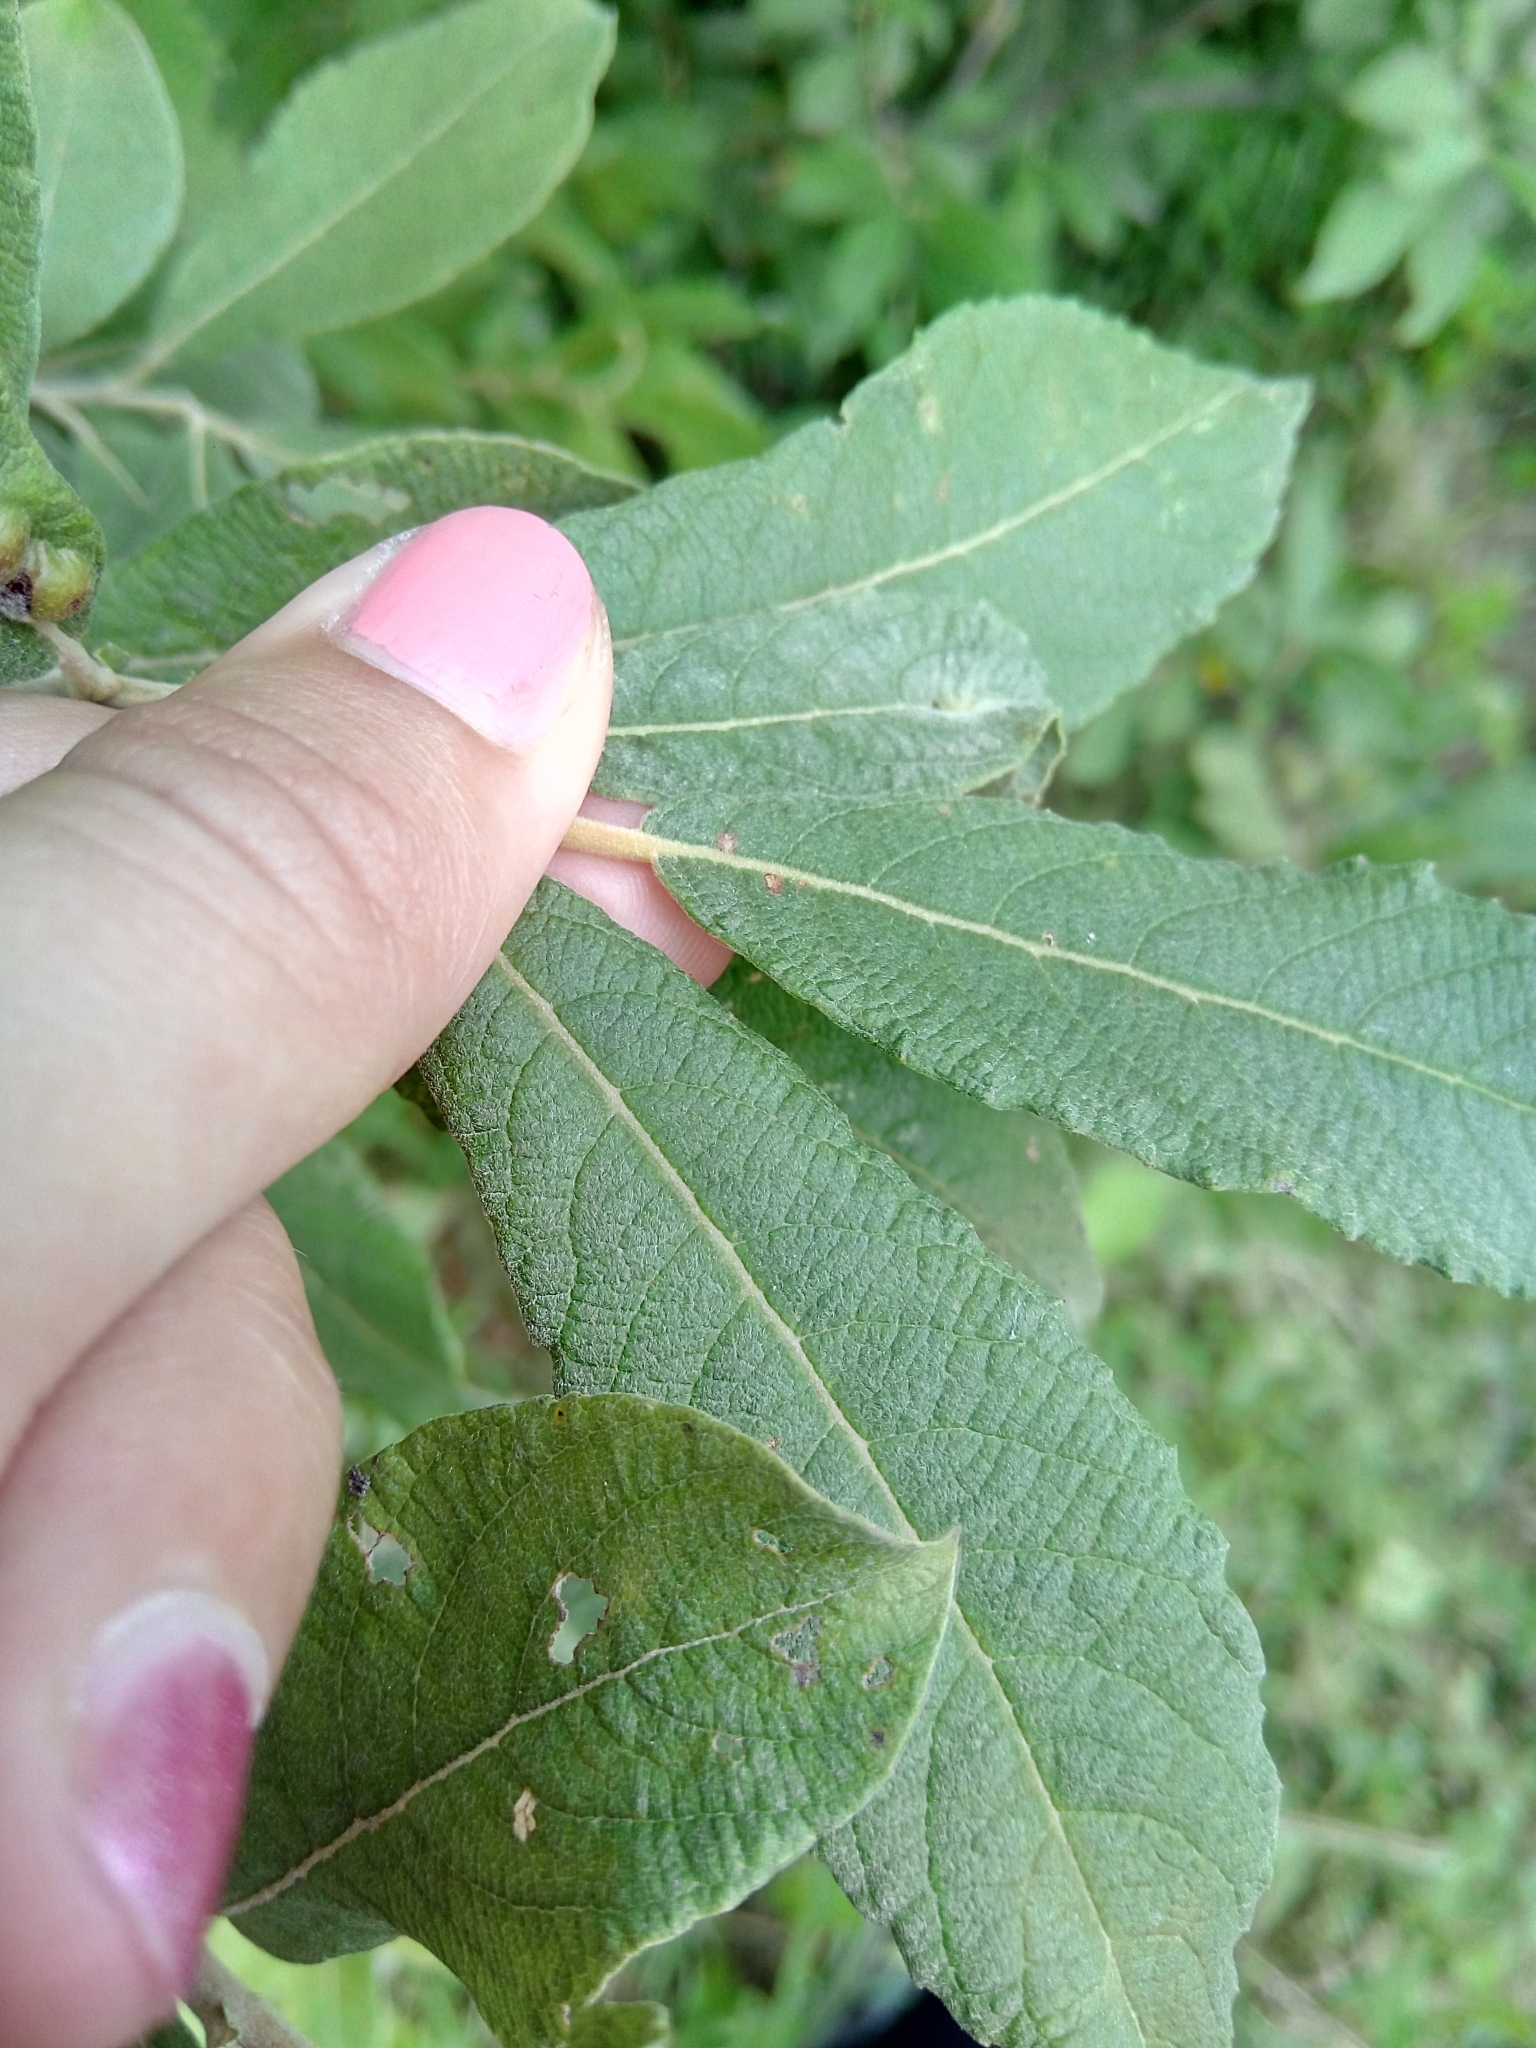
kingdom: Plantae
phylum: Tracheophyta
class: Magnoliopsida
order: Malpighiales
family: Salicaceae
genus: Salix
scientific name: Salix cinerea
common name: Common sallow
